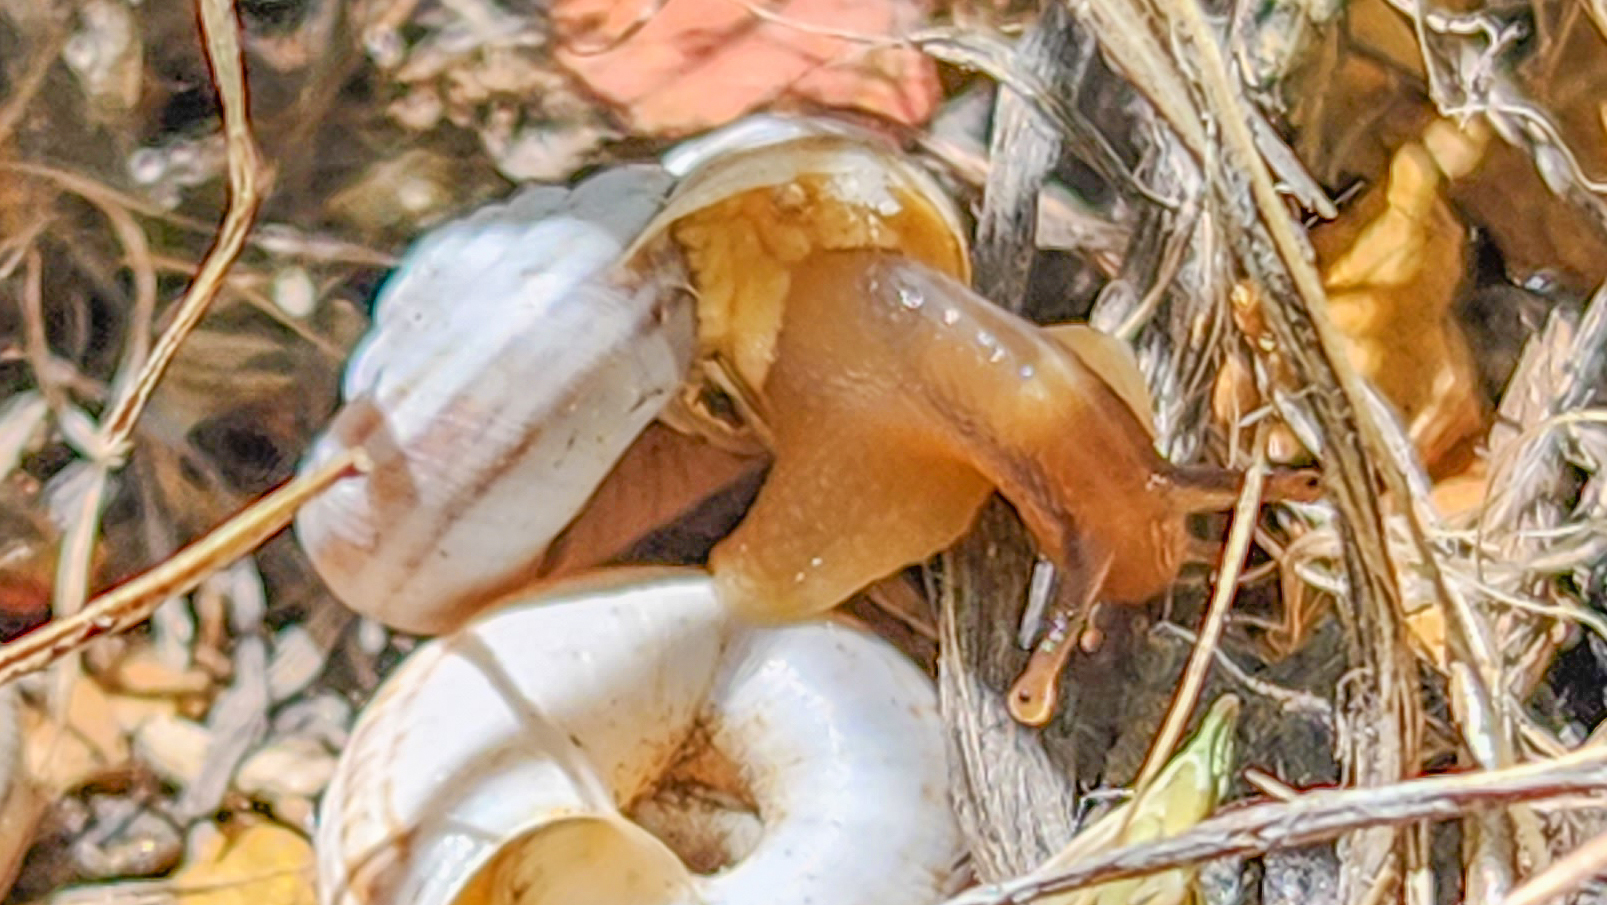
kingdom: Animalia
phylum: Mollusca
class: Gastropoda
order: Stylommatophora
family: Geomitridae
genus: Xerolenta
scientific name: Xerolenta obvia
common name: White heath snail
